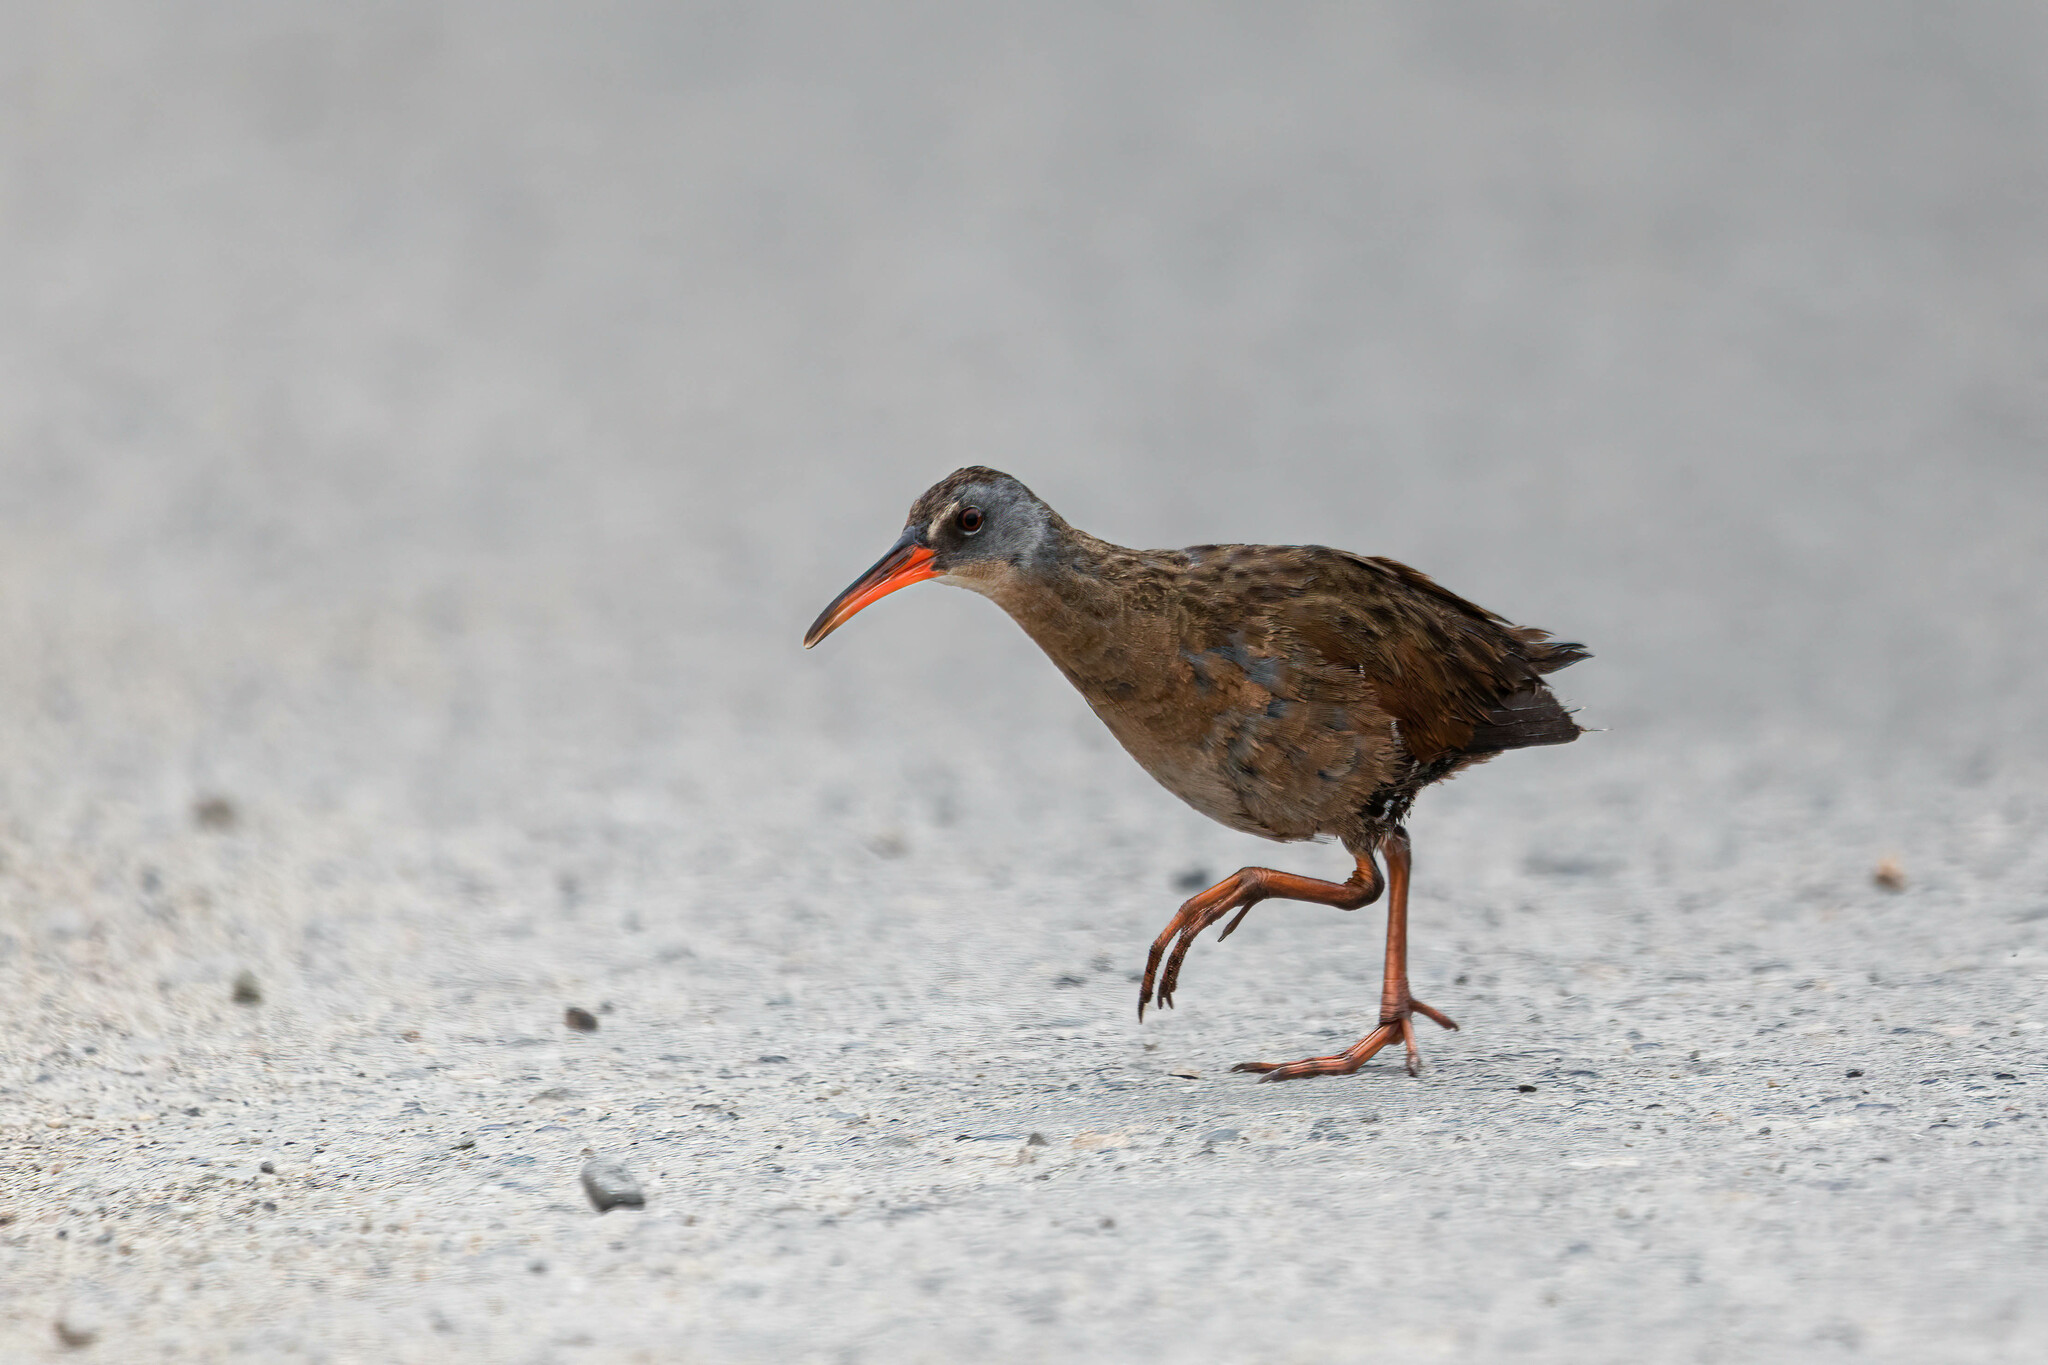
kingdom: Animalia
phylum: Chordata
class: Aves
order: Gruiformes
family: Rallidae
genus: Rallus
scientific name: Rallus limicola
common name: Virginia rail
